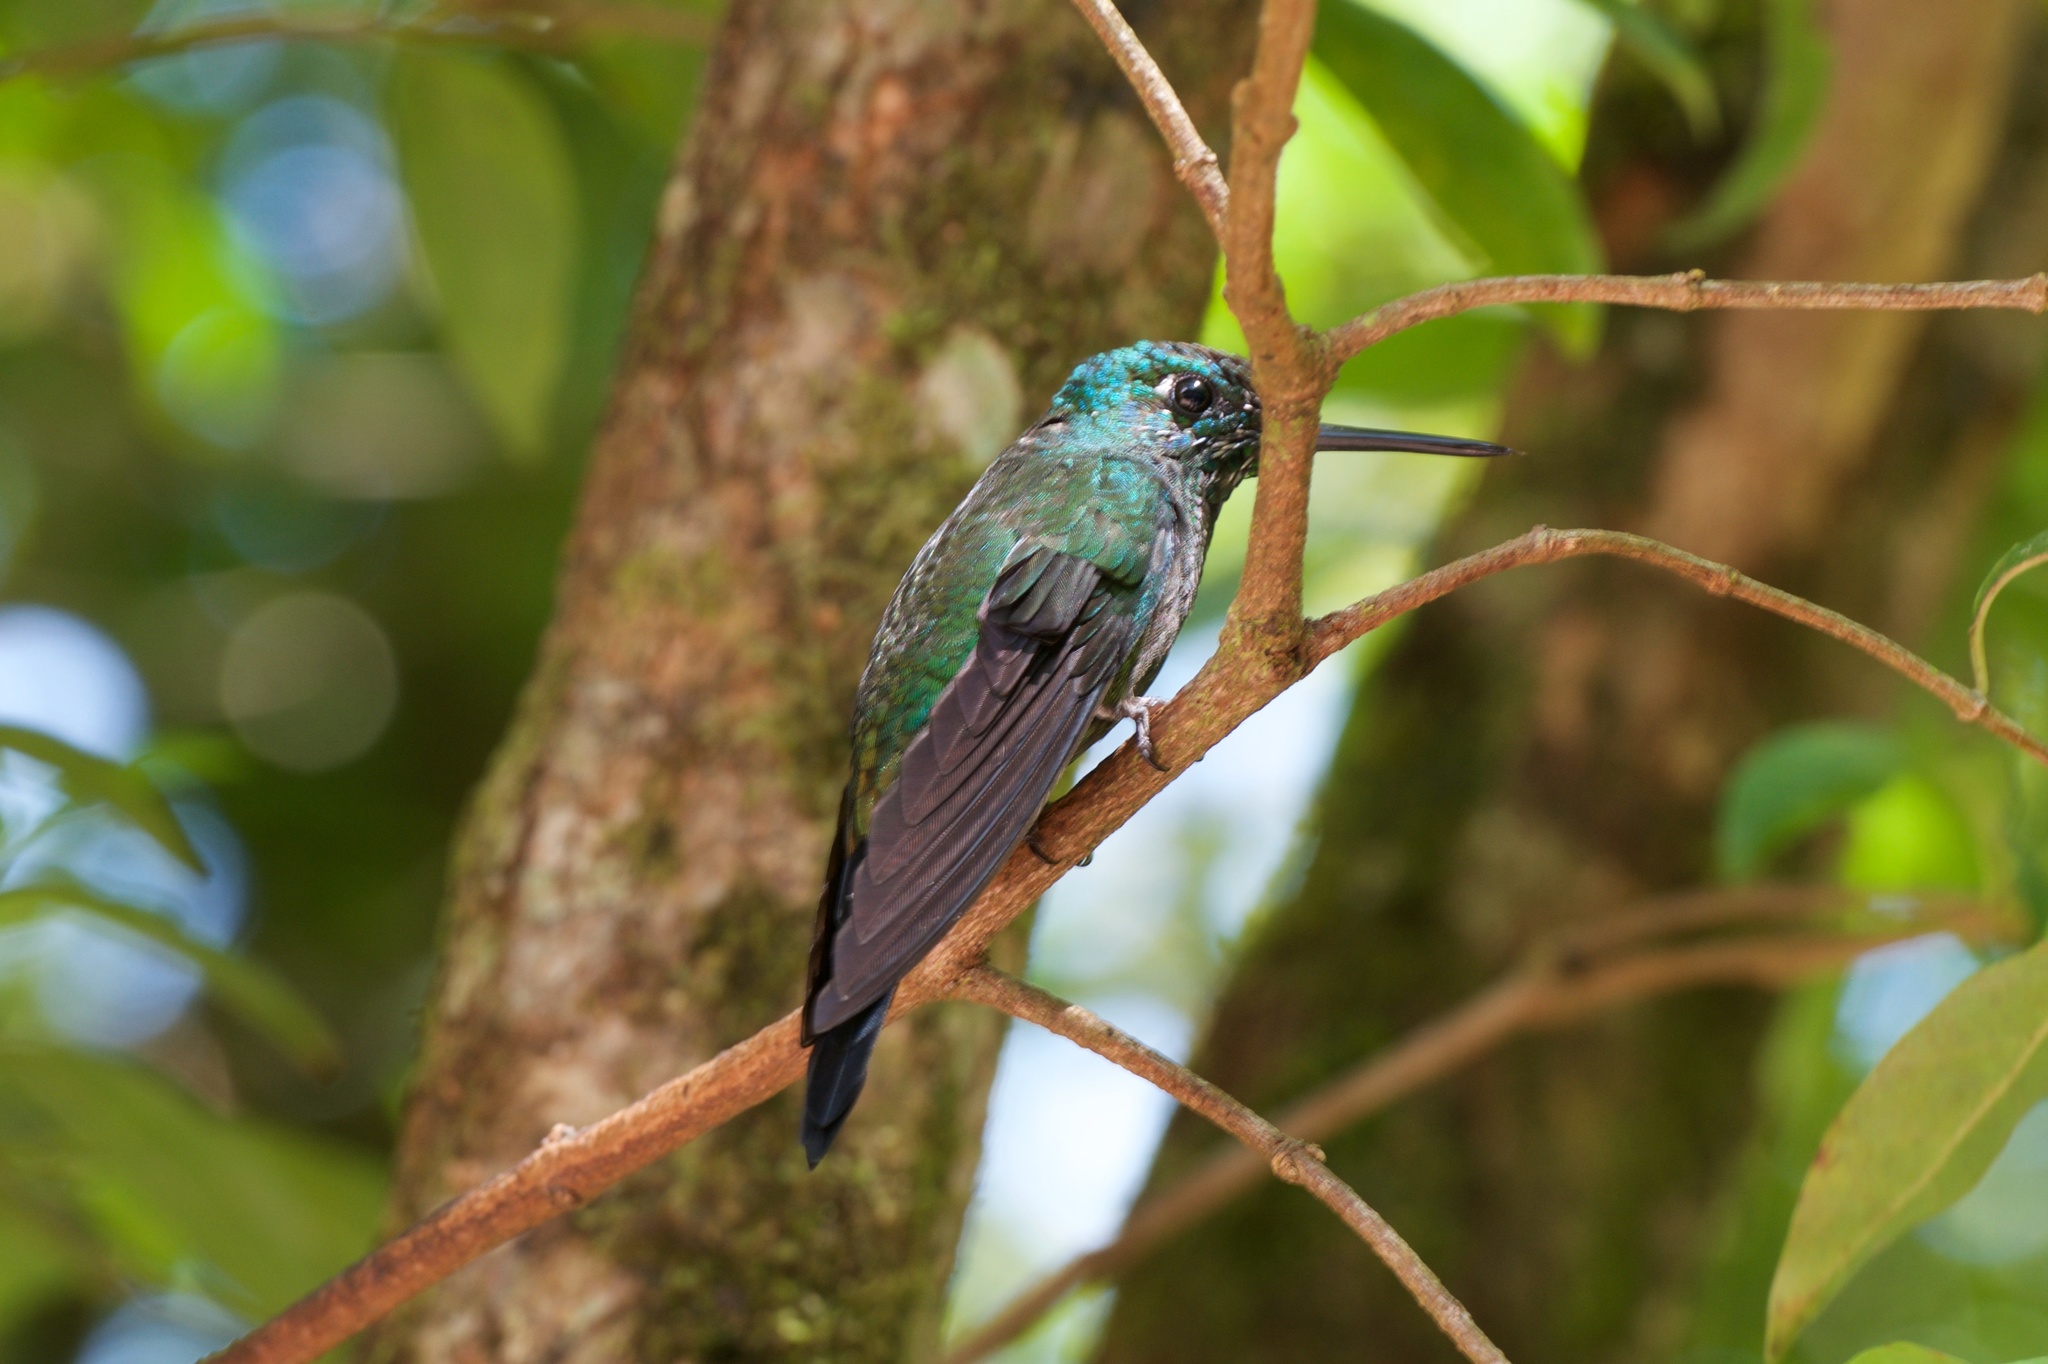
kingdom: Animalia
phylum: Chordata
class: Aves
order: Apodiformes
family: Trochilidae
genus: Heliodoxa
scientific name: Heliodoxa jacula
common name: Green-crowned brilliant
